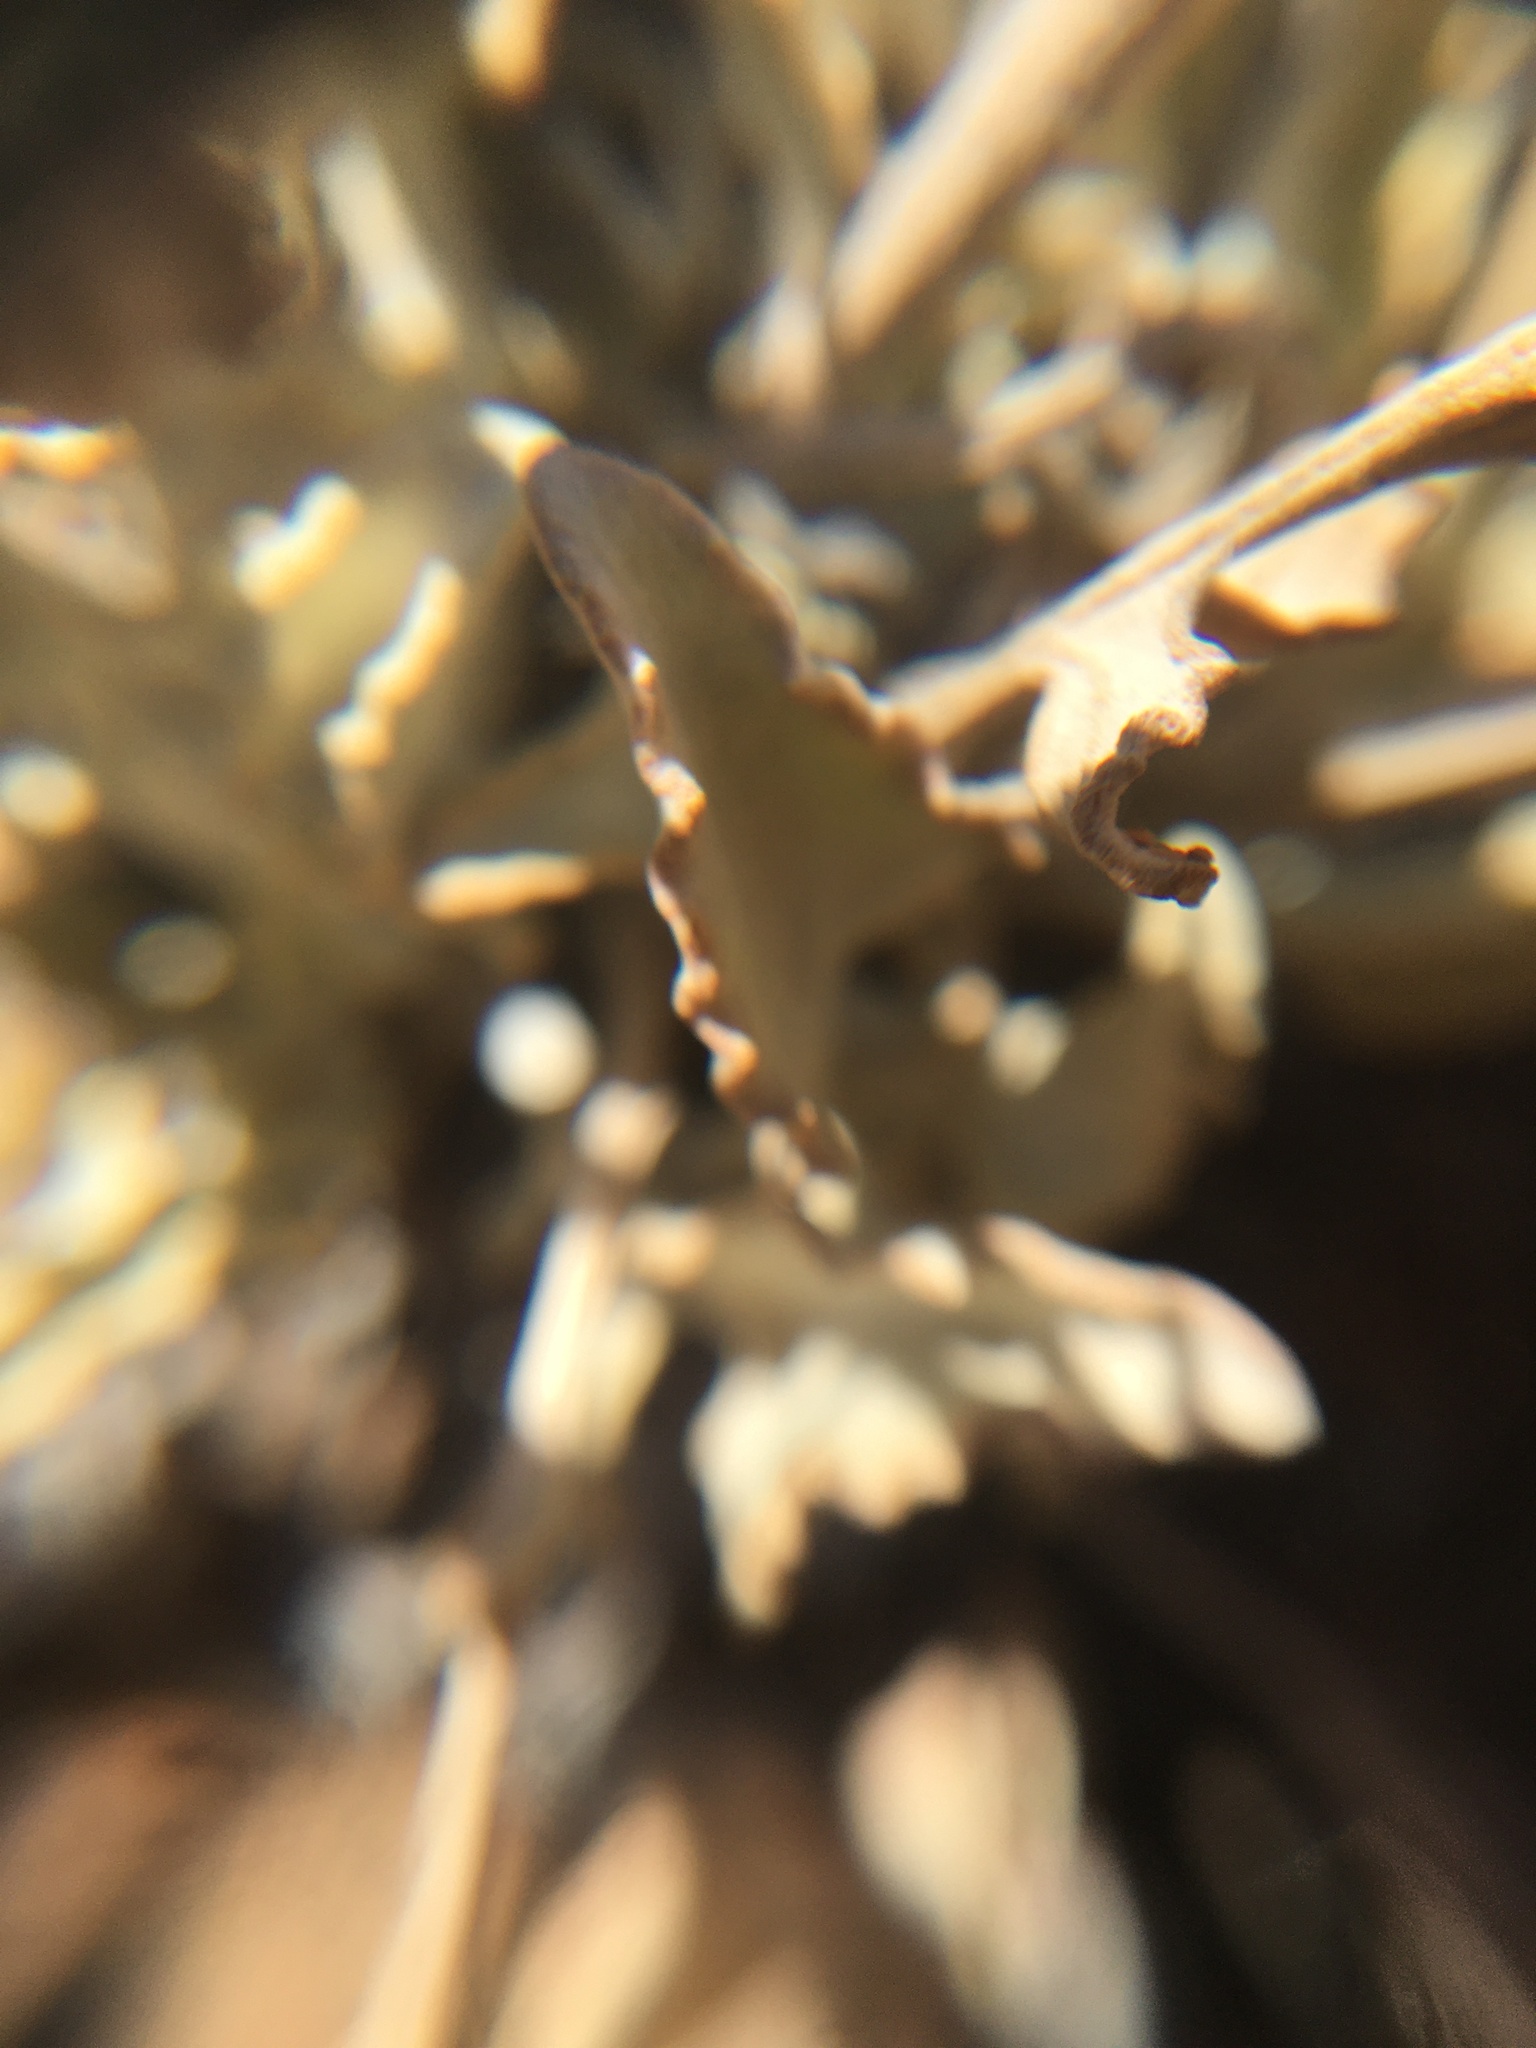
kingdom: Plantae
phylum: Tracheophyta
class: Magnoliopsida
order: Asterales
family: Asteraceae
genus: Arctotis
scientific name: Arctotis adpressa
